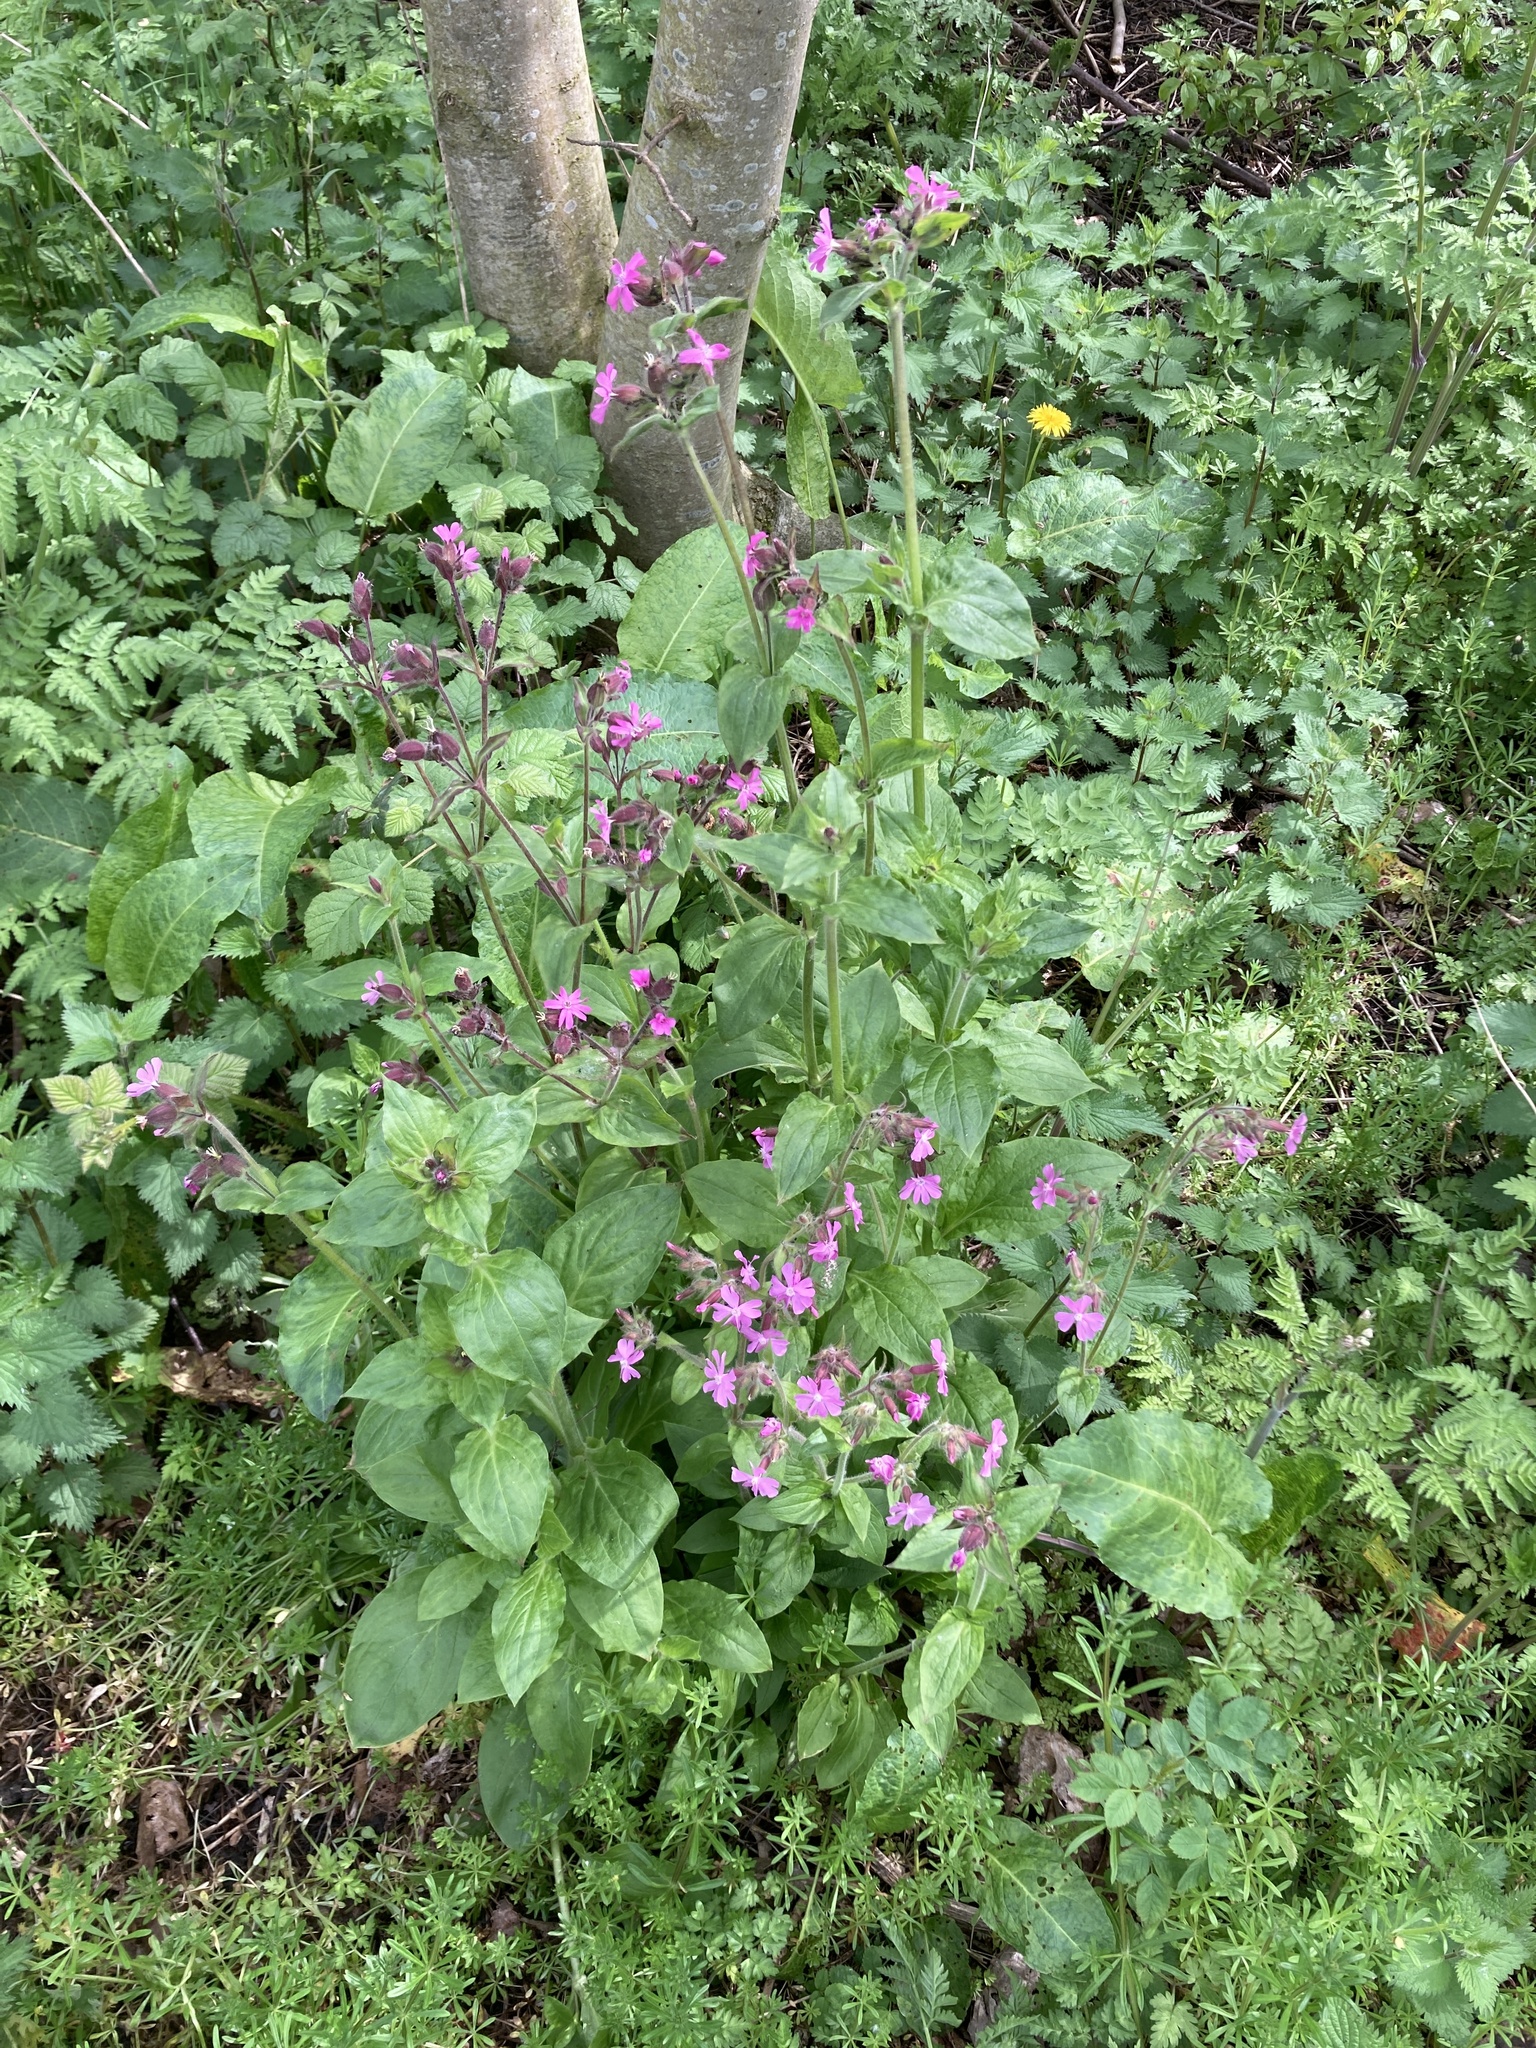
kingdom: Plantae
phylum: Tracheophyta
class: Magnoliopsida
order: Caryophyllales
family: Caryophyllaceae
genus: Silene
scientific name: Silene dioica
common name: Red campion
